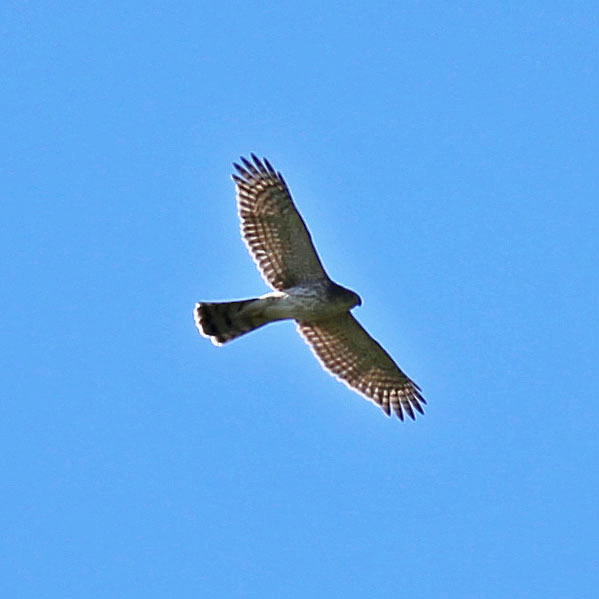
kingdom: Animalia
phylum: Chordata
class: Aves
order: Accipitriformes
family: Accipitridae
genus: Accipiter
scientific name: Accipiter cooperii
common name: Cooper's hawk
